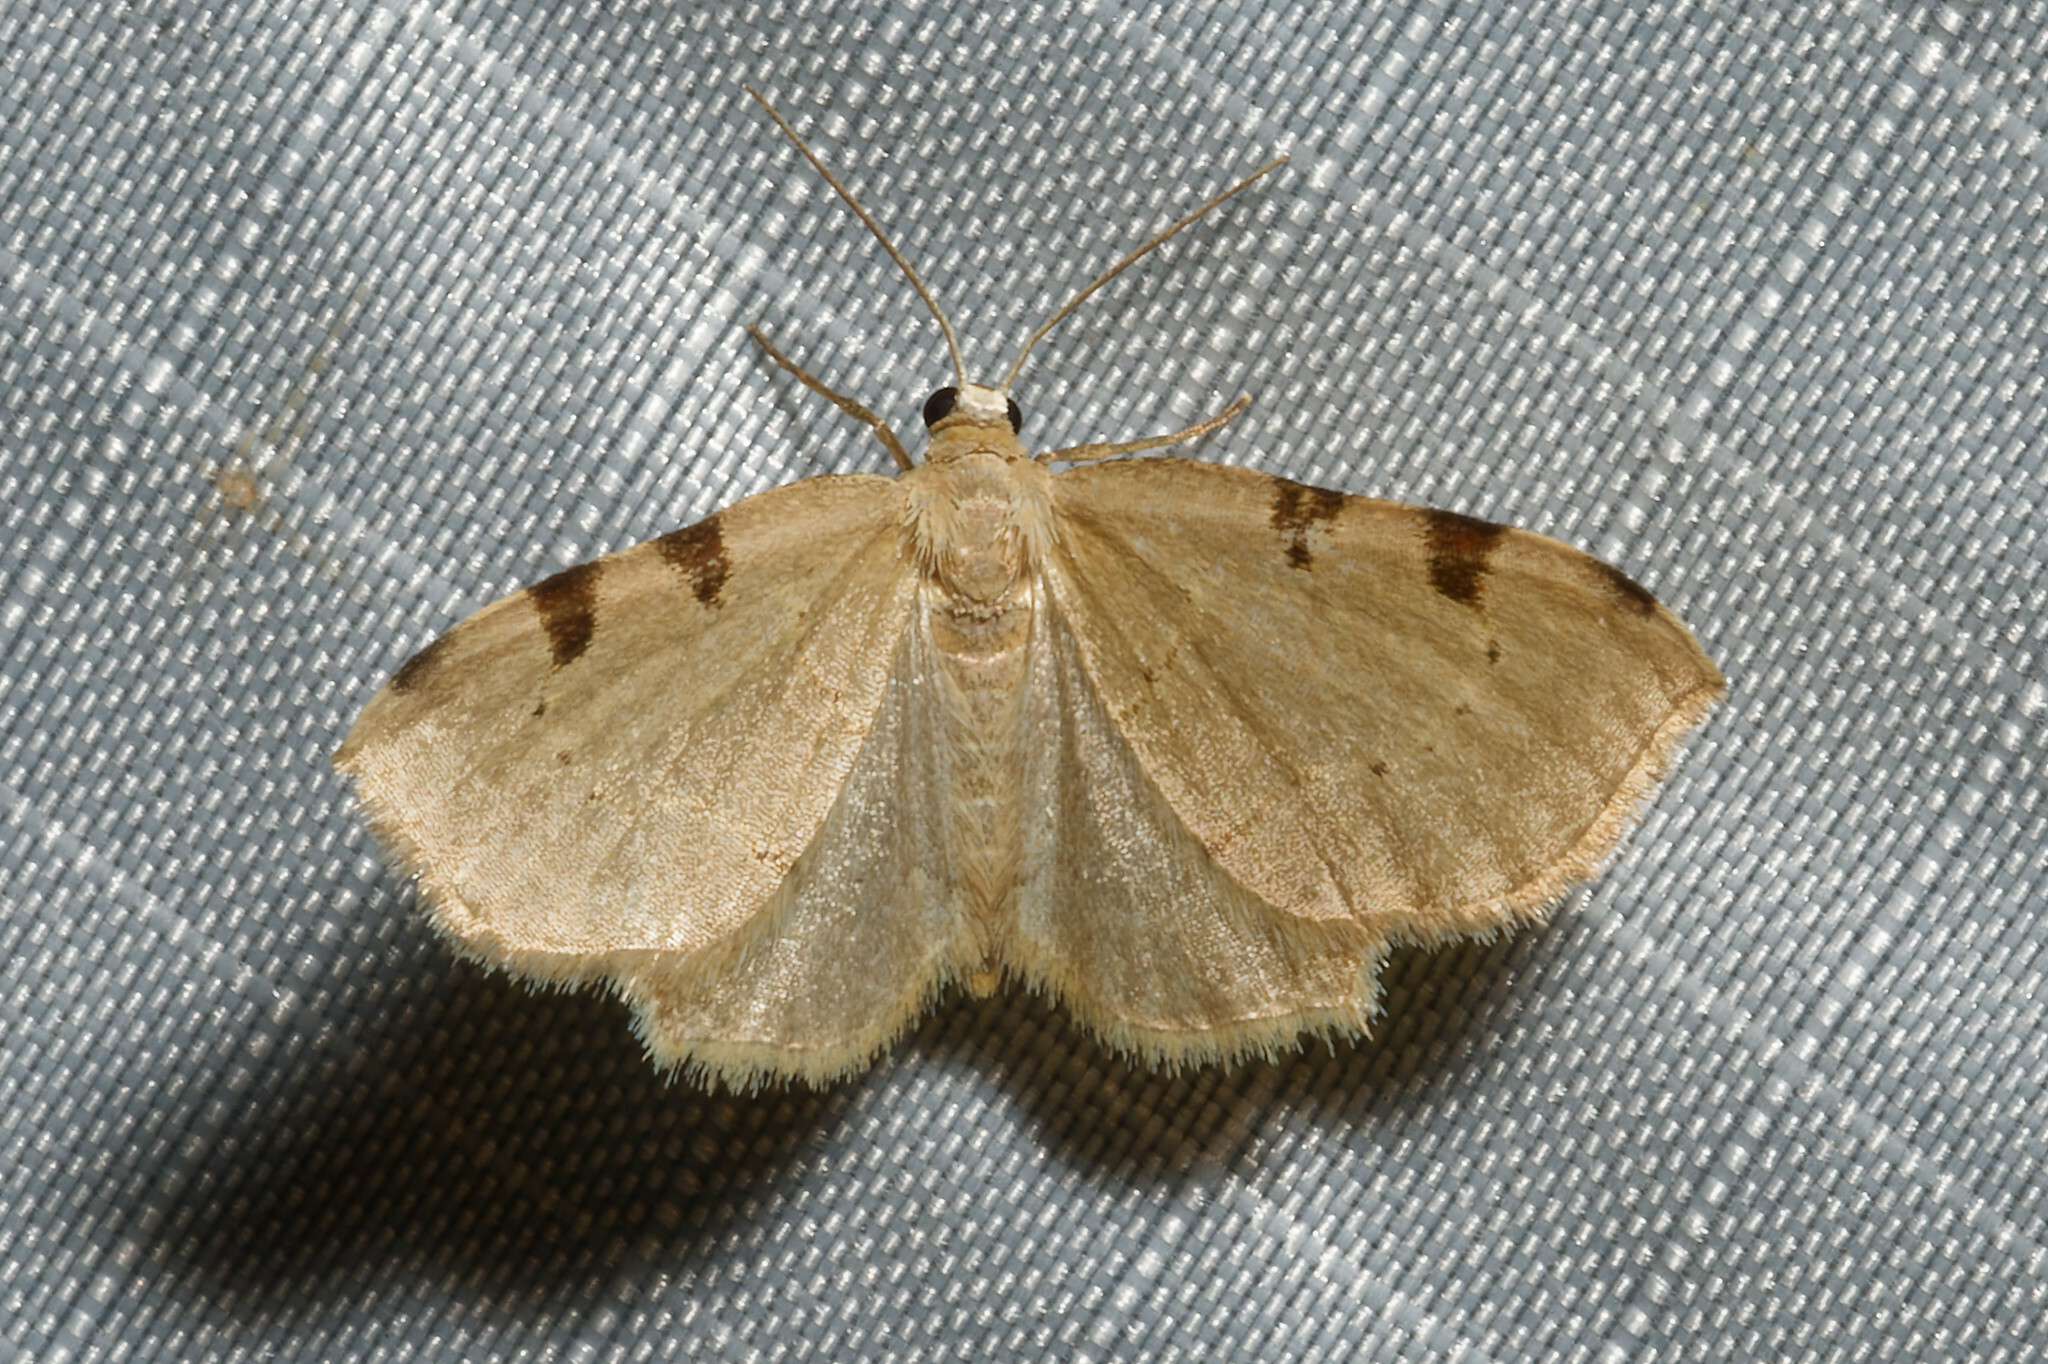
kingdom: Animalia
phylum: Arthropoda
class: Insecta
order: Lepidoptera
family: Geometridae
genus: Heterophleps
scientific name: Heterophleps triguttaria
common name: Three-spotted fillip
